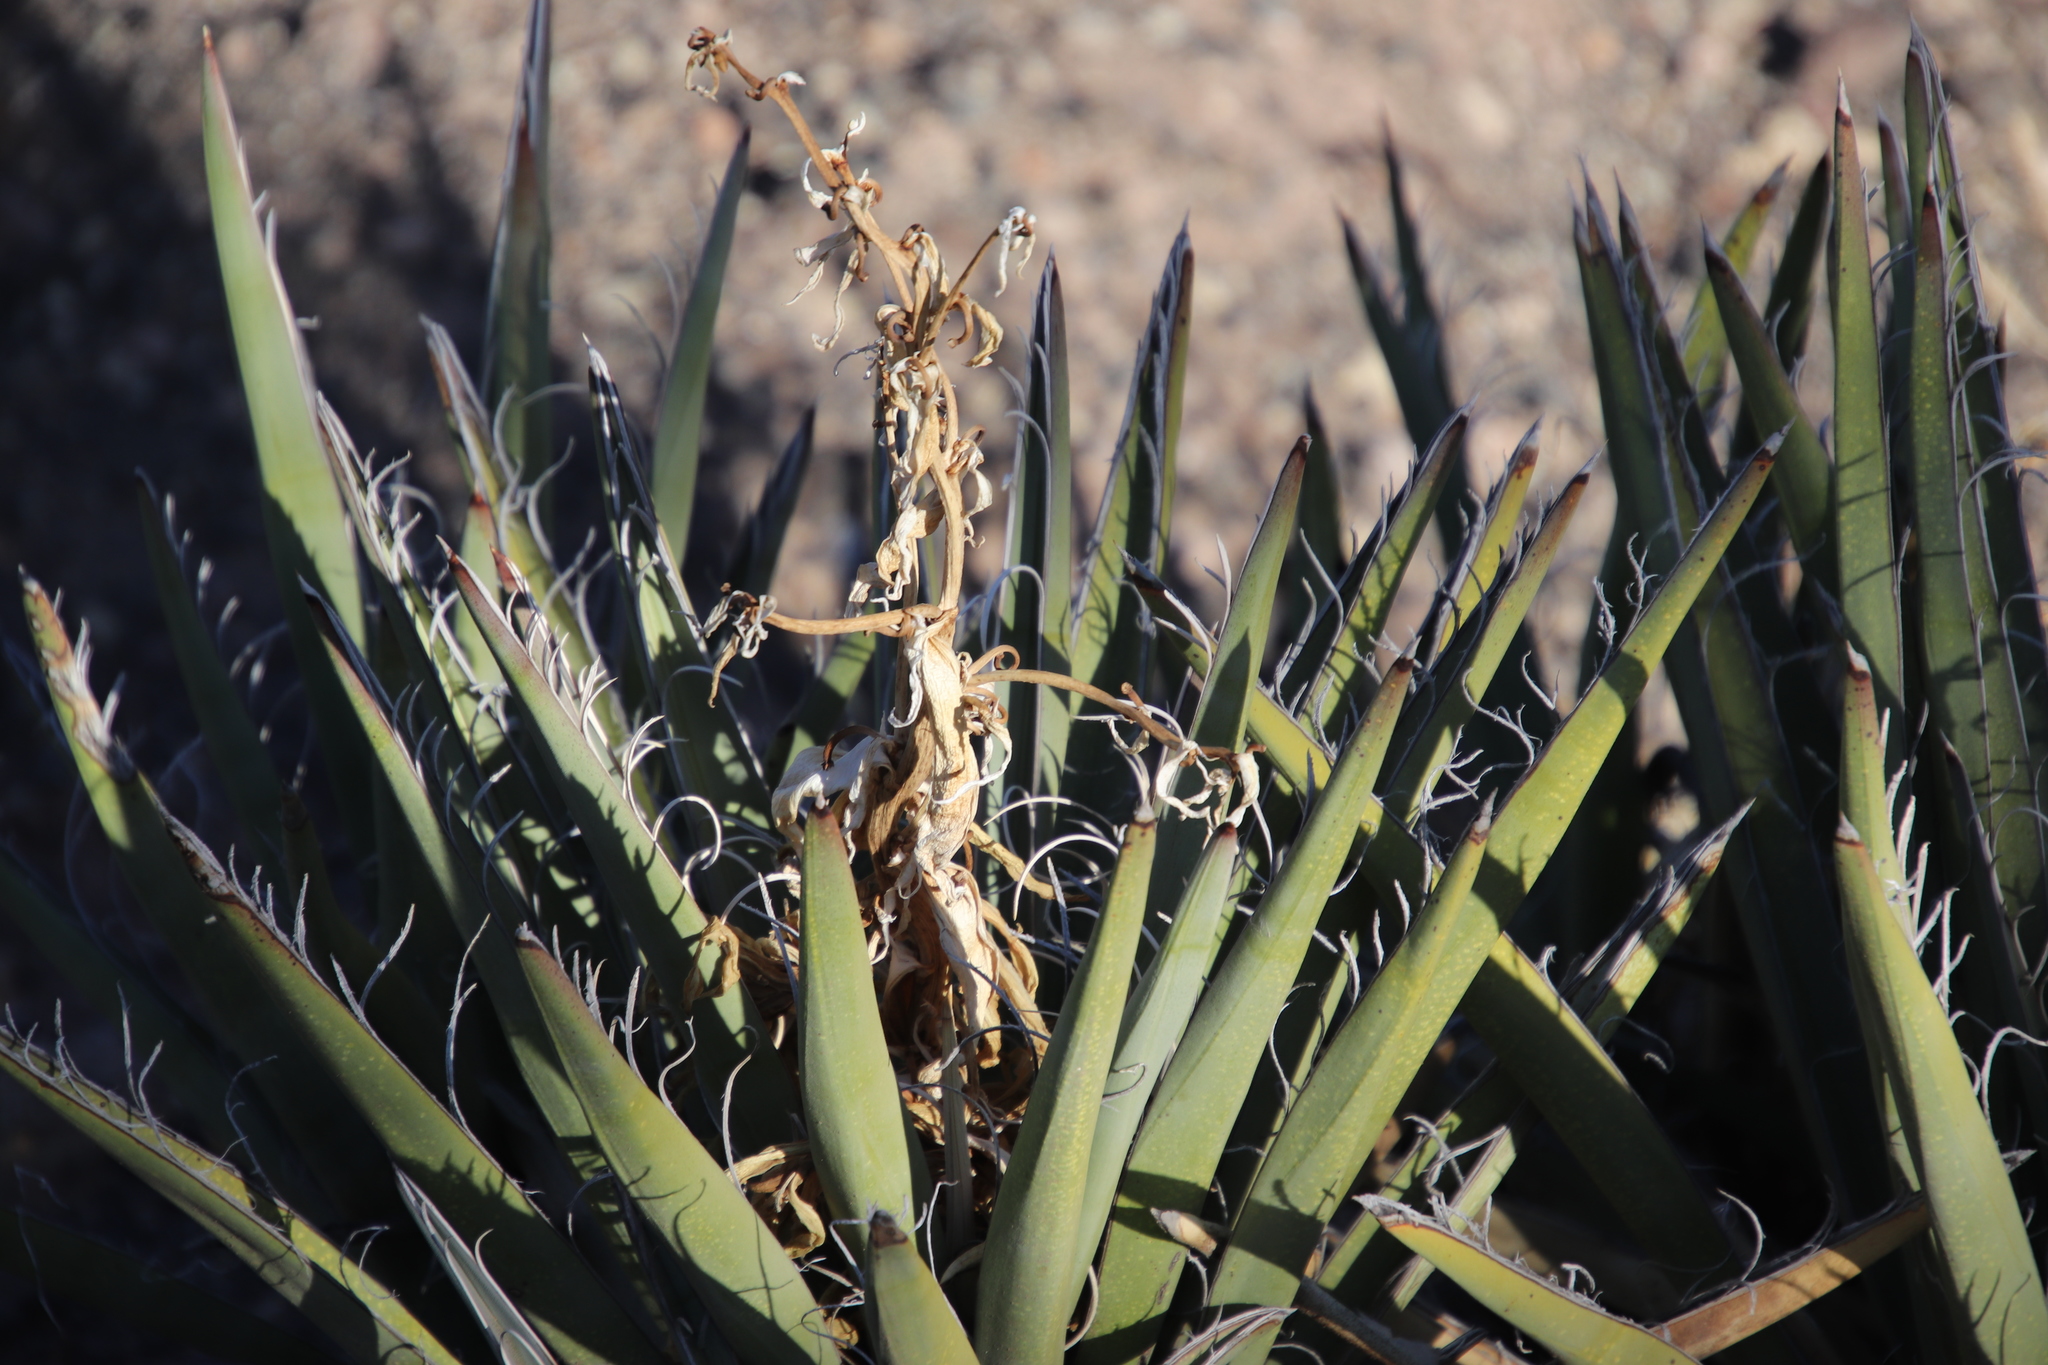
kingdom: Plantae
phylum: Tracheophyta
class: Liliopsida
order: Asparagales
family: Asparagaceae
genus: Yucca
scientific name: Yucca baccata
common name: Banana yucca
